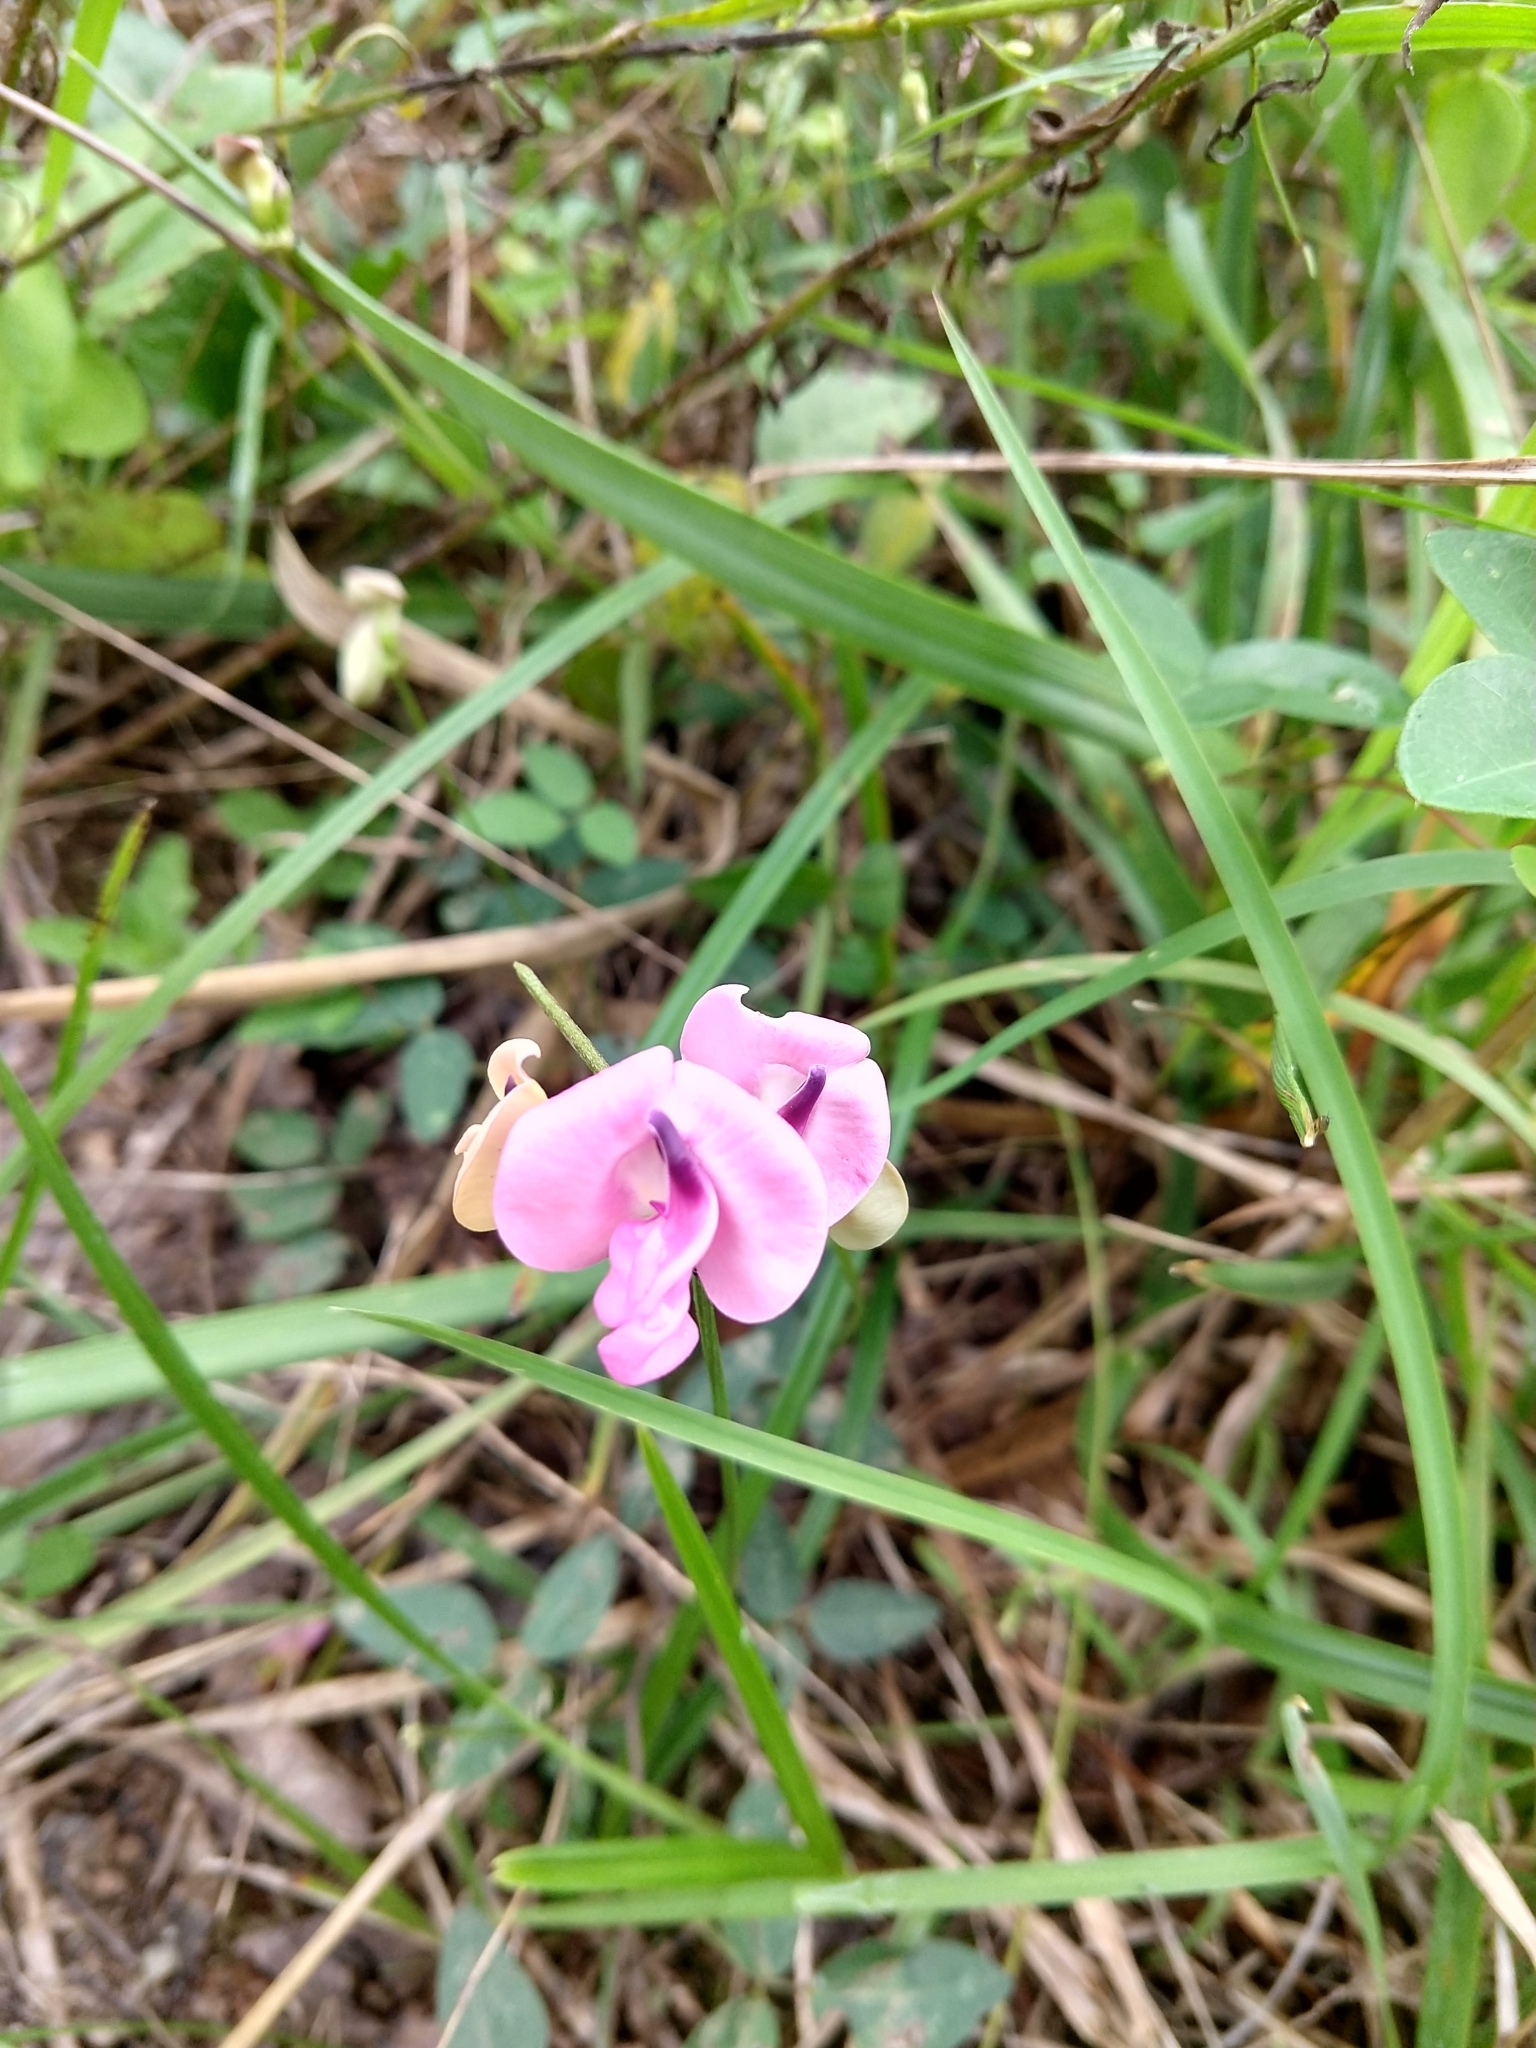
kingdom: Plantae
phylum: Tracheophyta
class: Magnoliopsida
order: Fabales
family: Fabaceae
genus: Strophostyles
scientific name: Strophostyles umbellata
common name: Perennial wild bean
